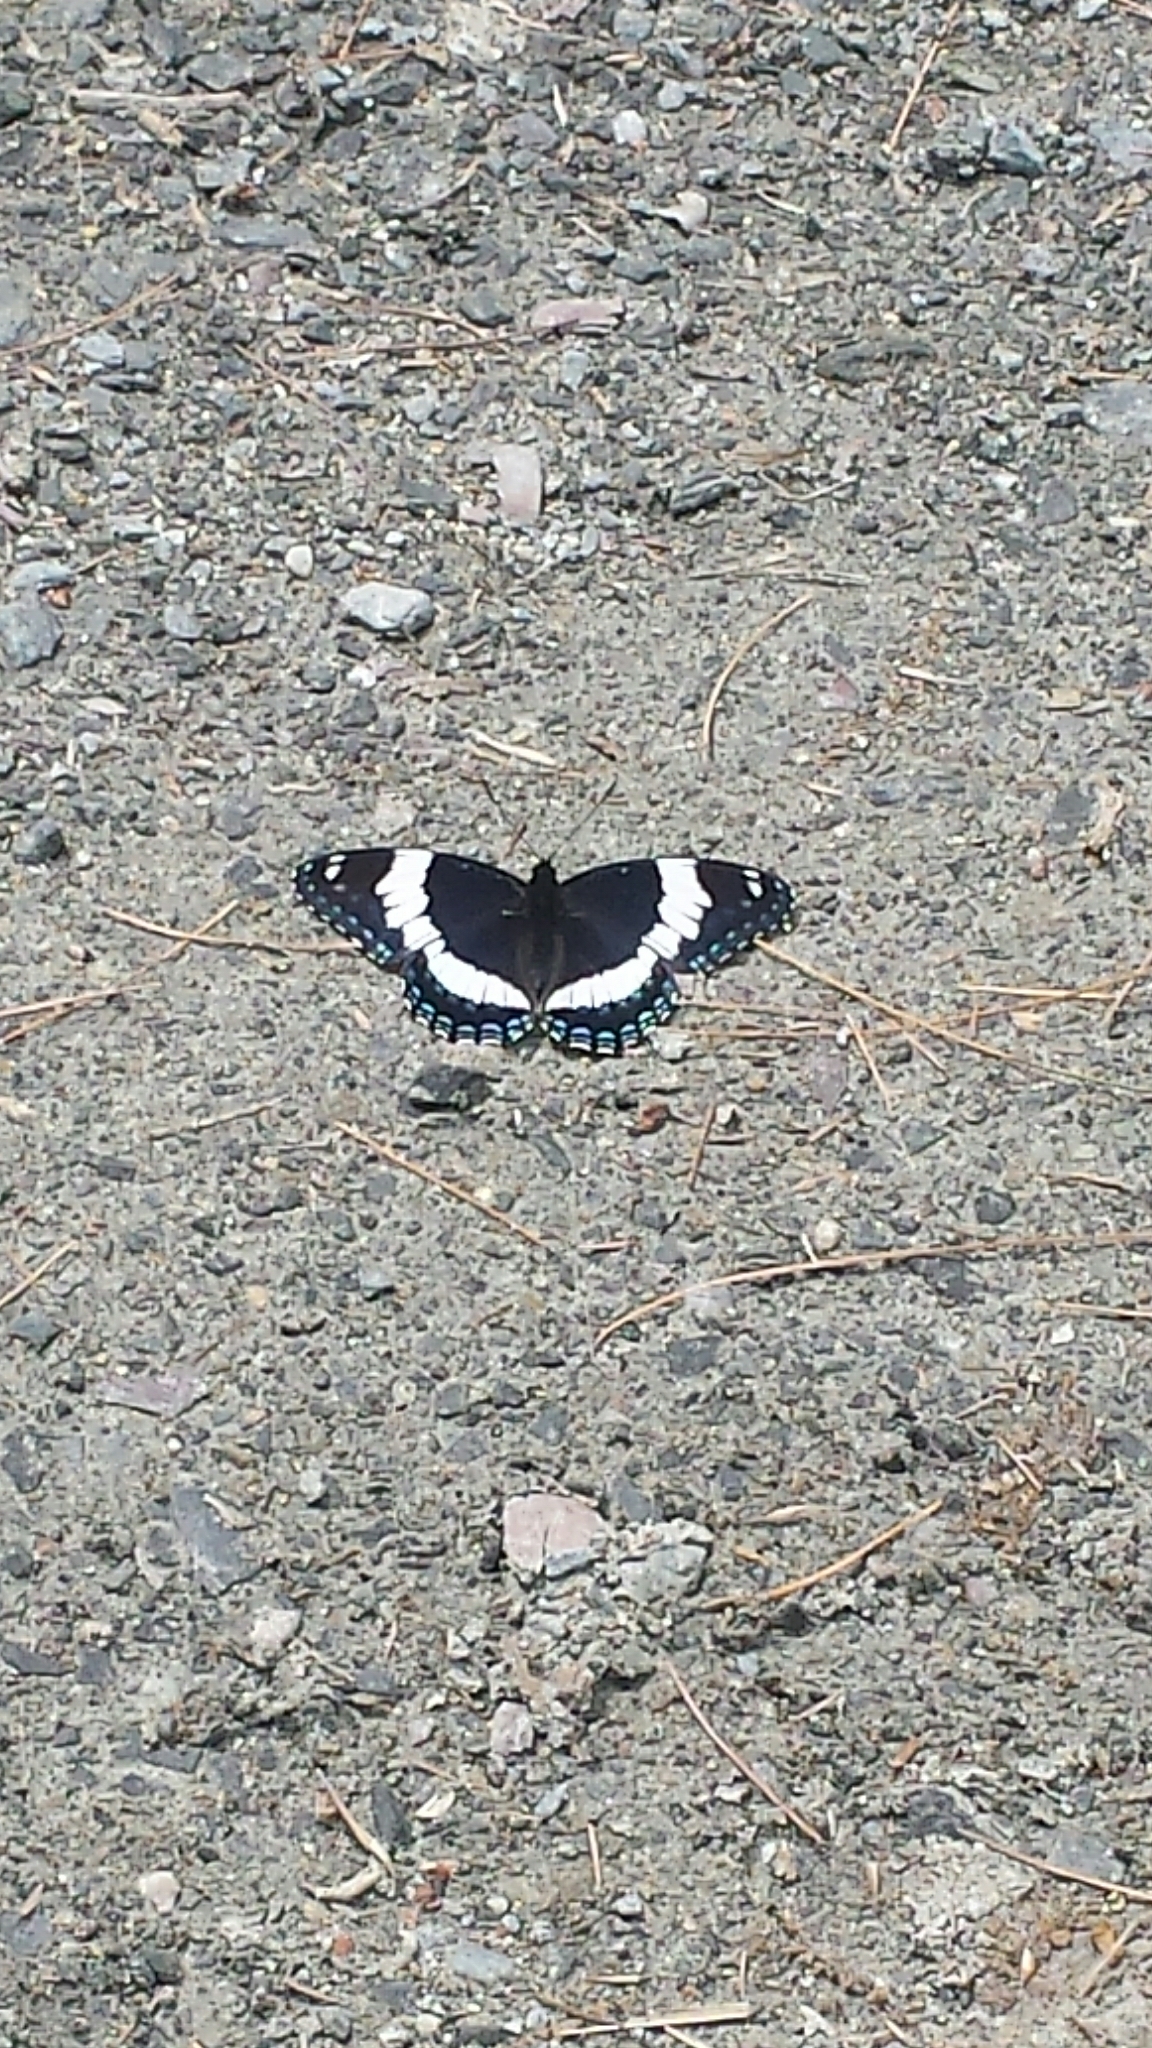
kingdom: Animalia
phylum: Arthropoda
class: Insecta
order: Lepidoptera
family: Nymphalidae
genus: Limenitis
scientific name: Limenitis arthemis
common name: Red-spotted admiral
